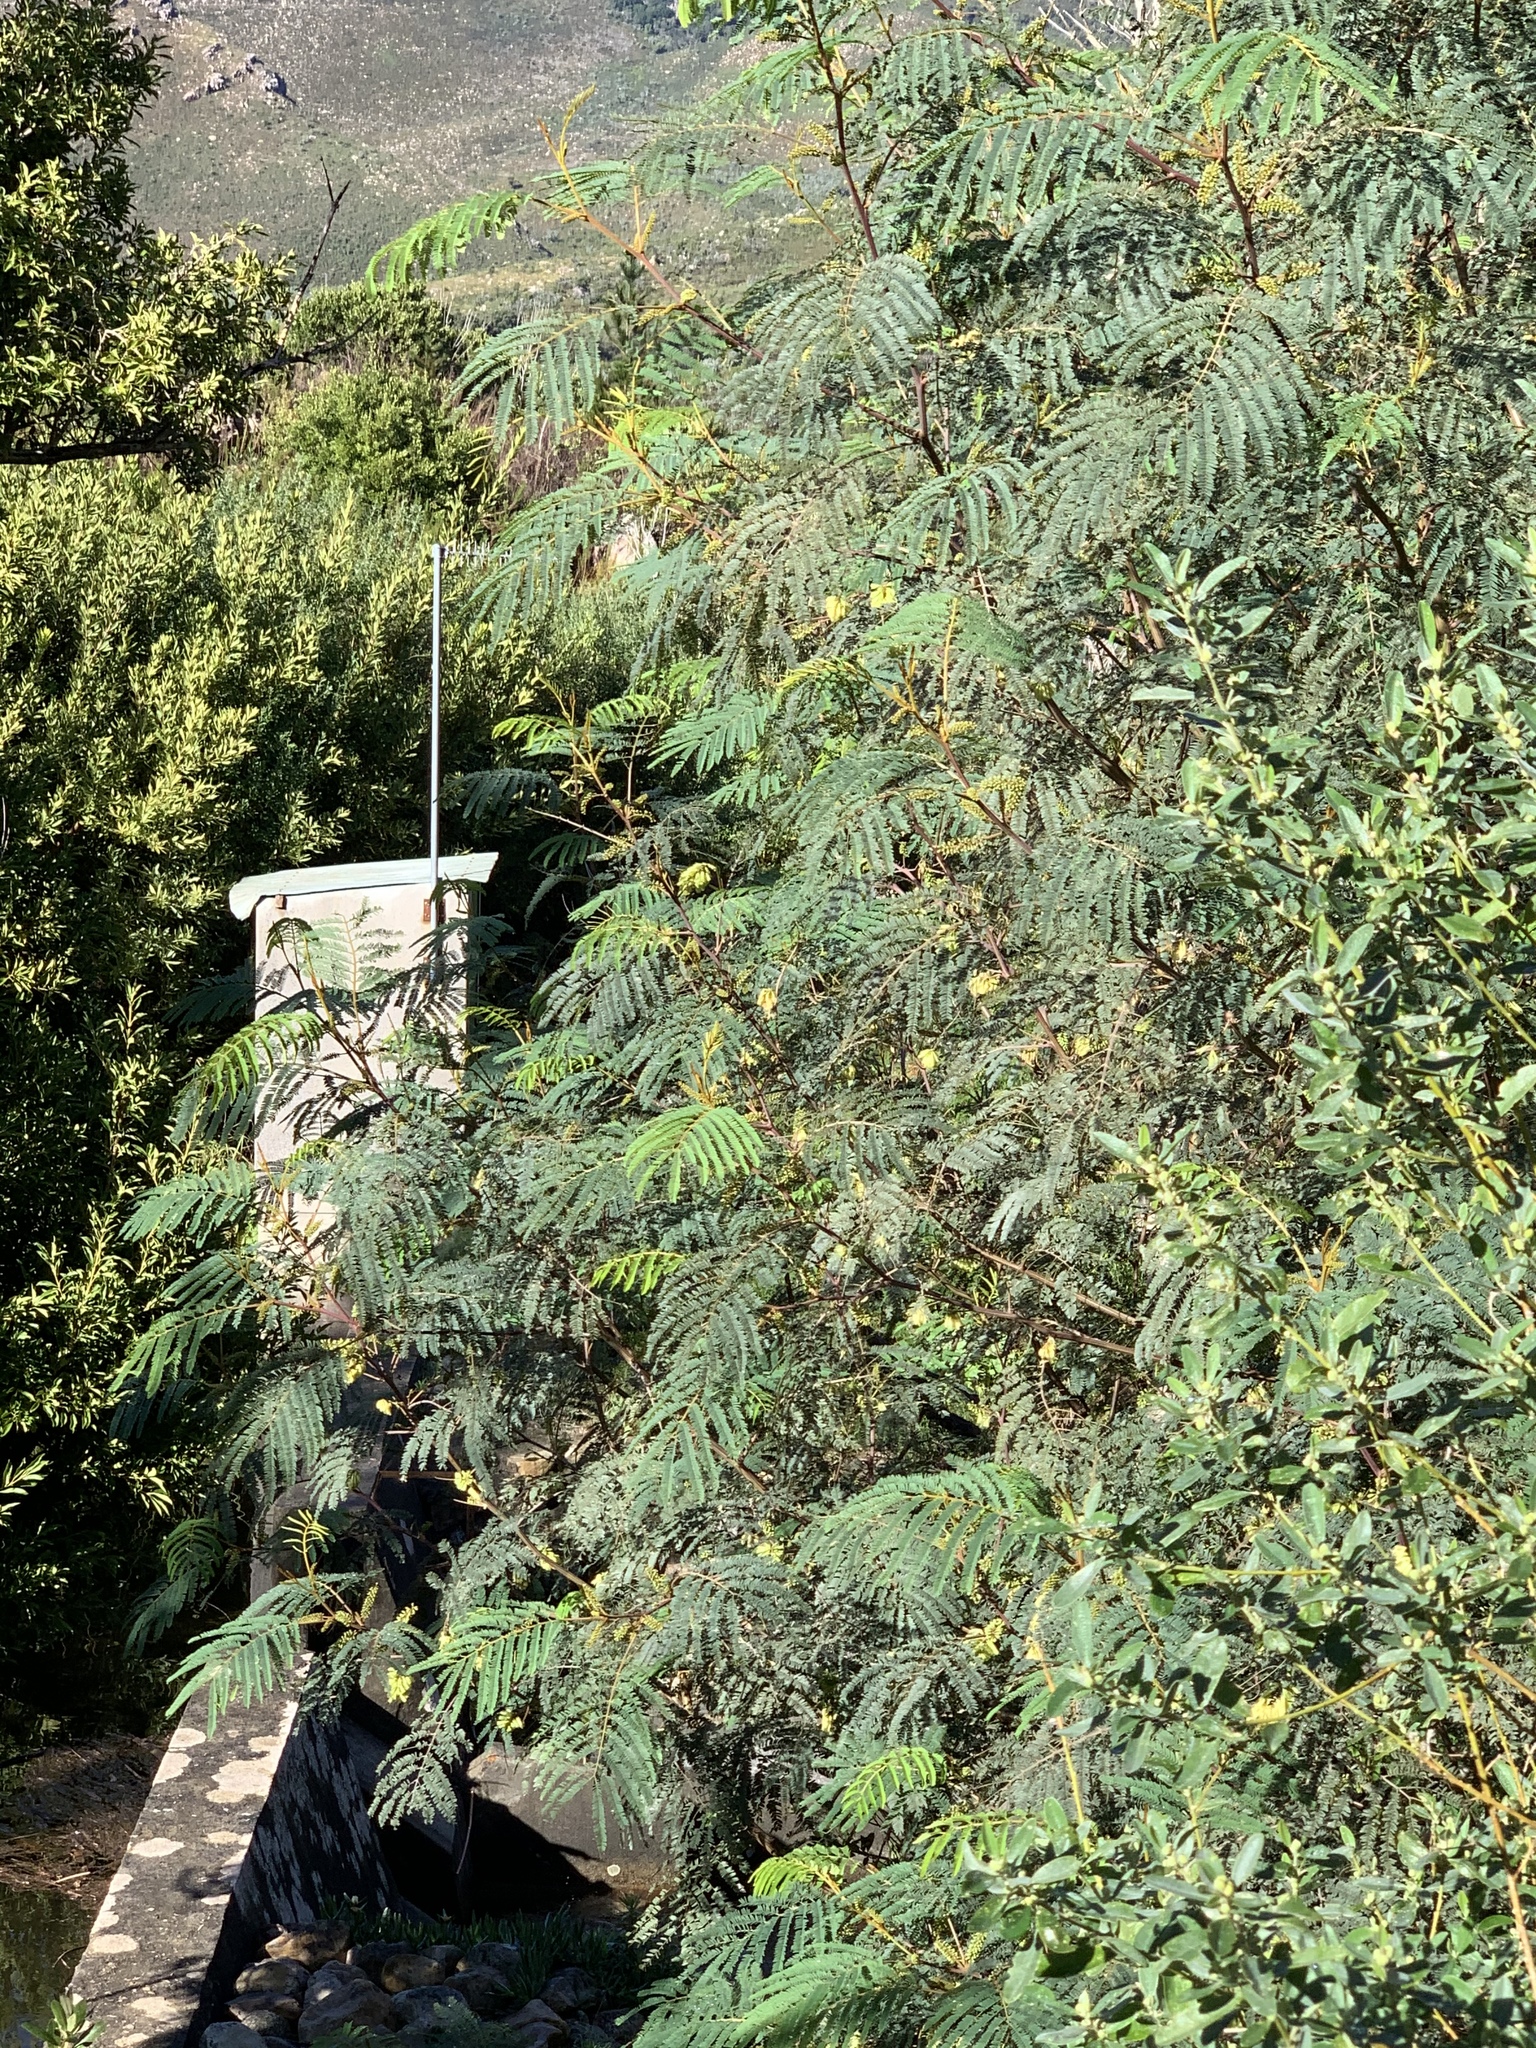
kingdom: Plantae
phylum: Tracheophyta
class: Magnoliopsida
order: Fabales
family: Fabaceae
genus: Paraserianthes
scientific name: Paraserianthes lophantha
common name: Plume albizia
